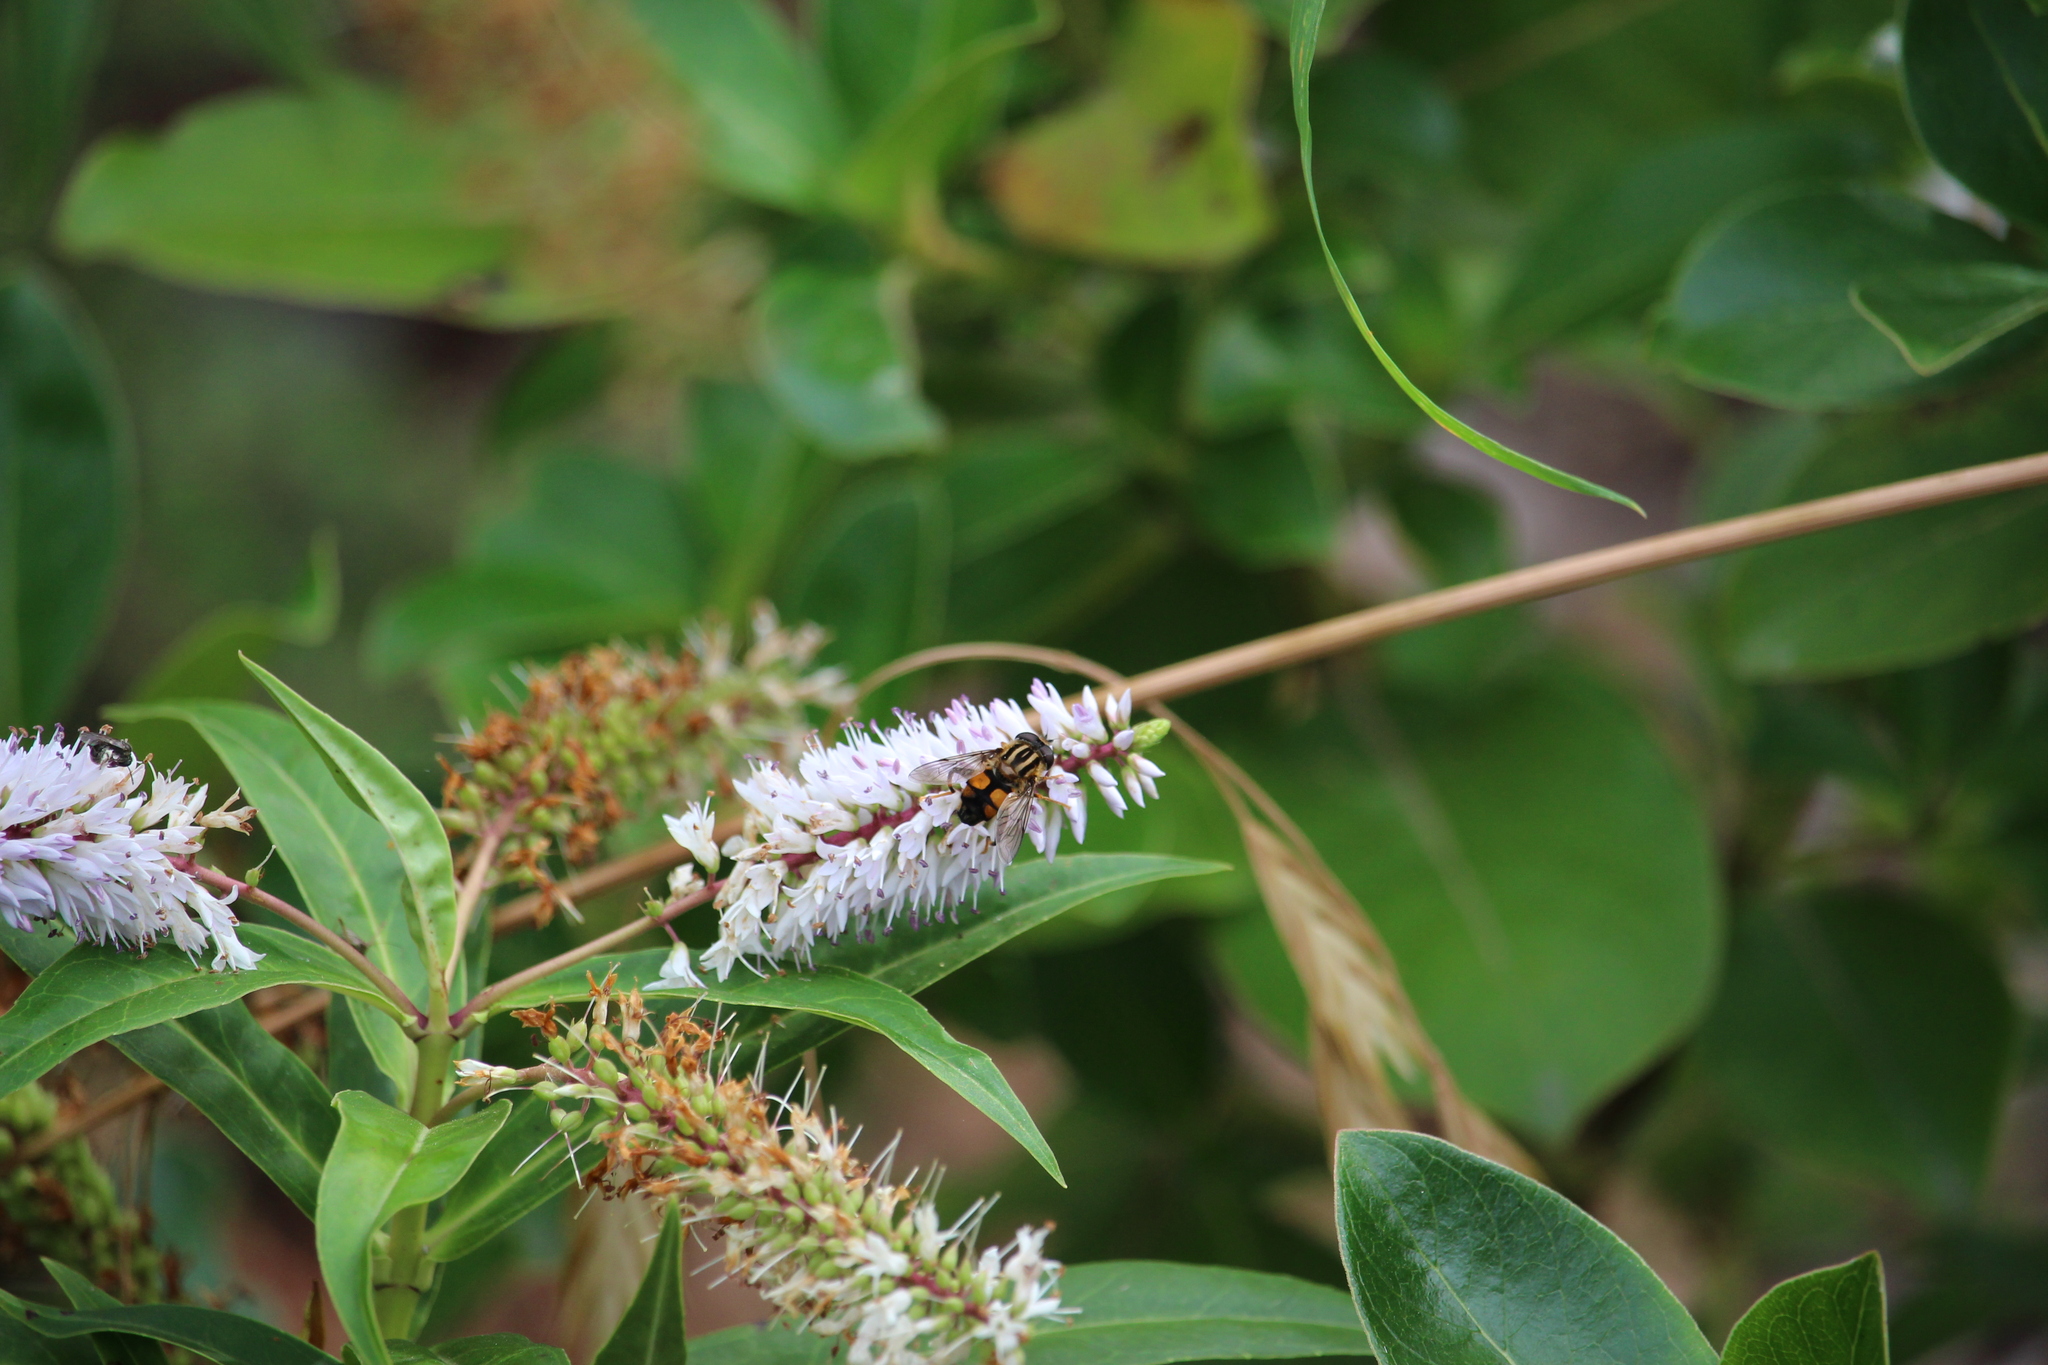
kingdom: Animalia
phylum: Arthropoda
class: Insecta
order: Diptera
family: Syrphidae
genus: Helophilus
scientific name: Helophilus antipodus
